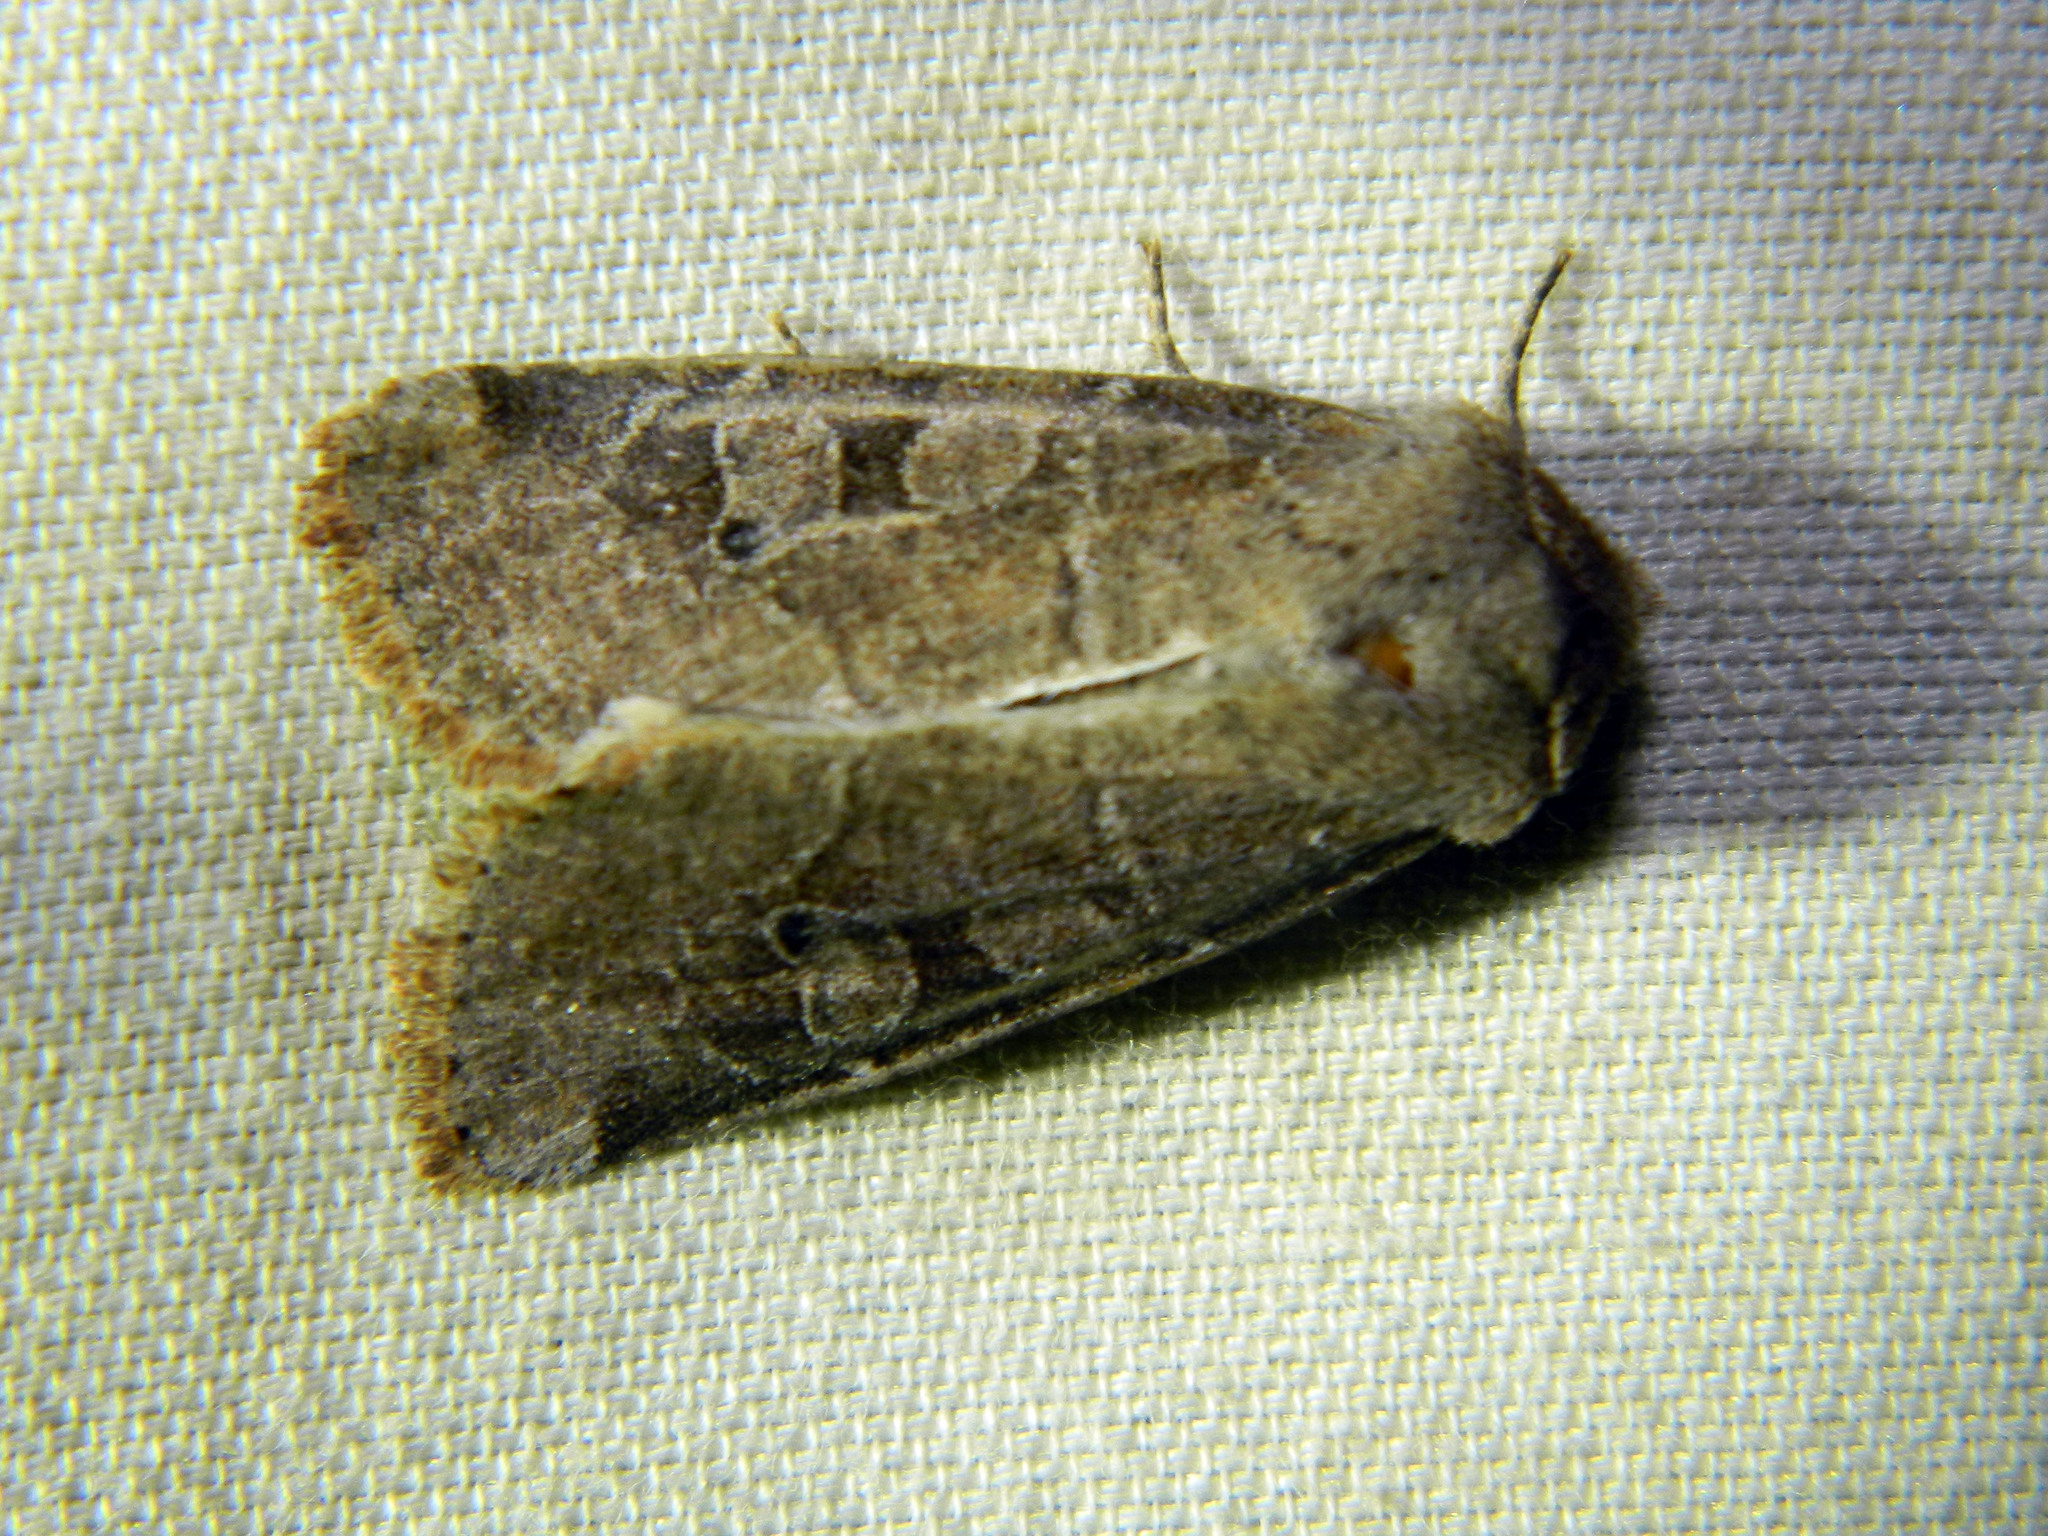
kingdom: Animalia
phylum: Arthropoda
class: Insecta
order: Lepidoptera
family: Noctuidae
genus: Crocigrapha
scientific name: Crocigrapha normani
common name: Norman's quaker
